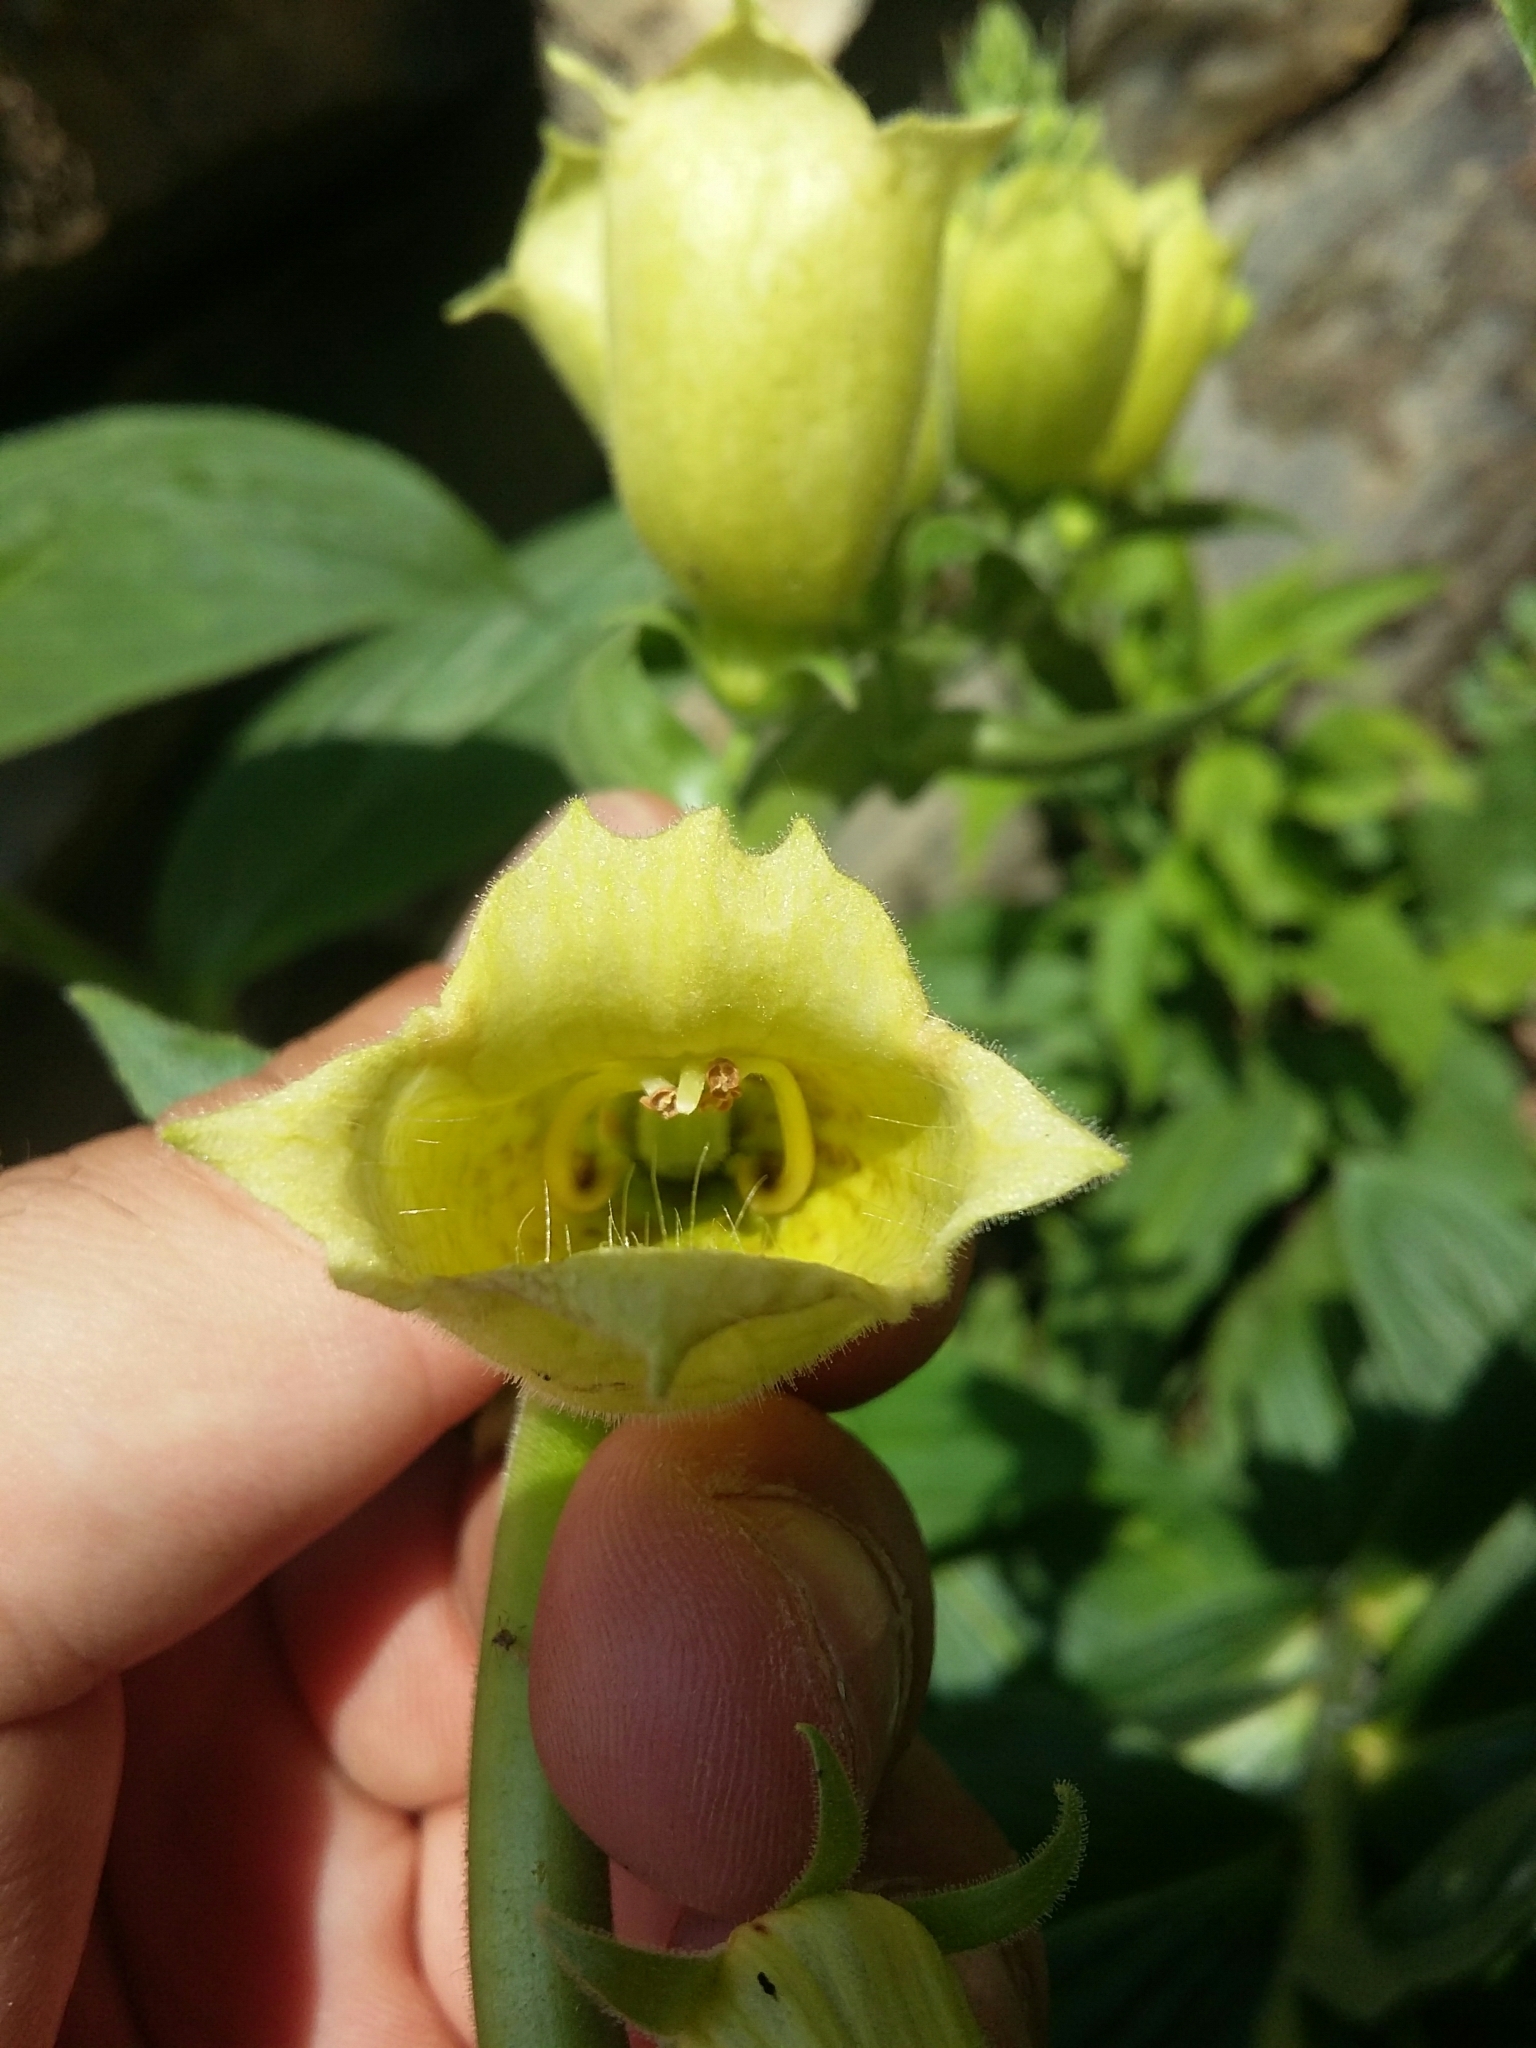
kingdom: Plantae
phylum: Tracheophyta
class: Magnoliopsida
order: Lamiales
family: Plantaginaceae
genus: Digitalis
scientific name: Digitalis grandiflora
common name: Yellow foxglove
